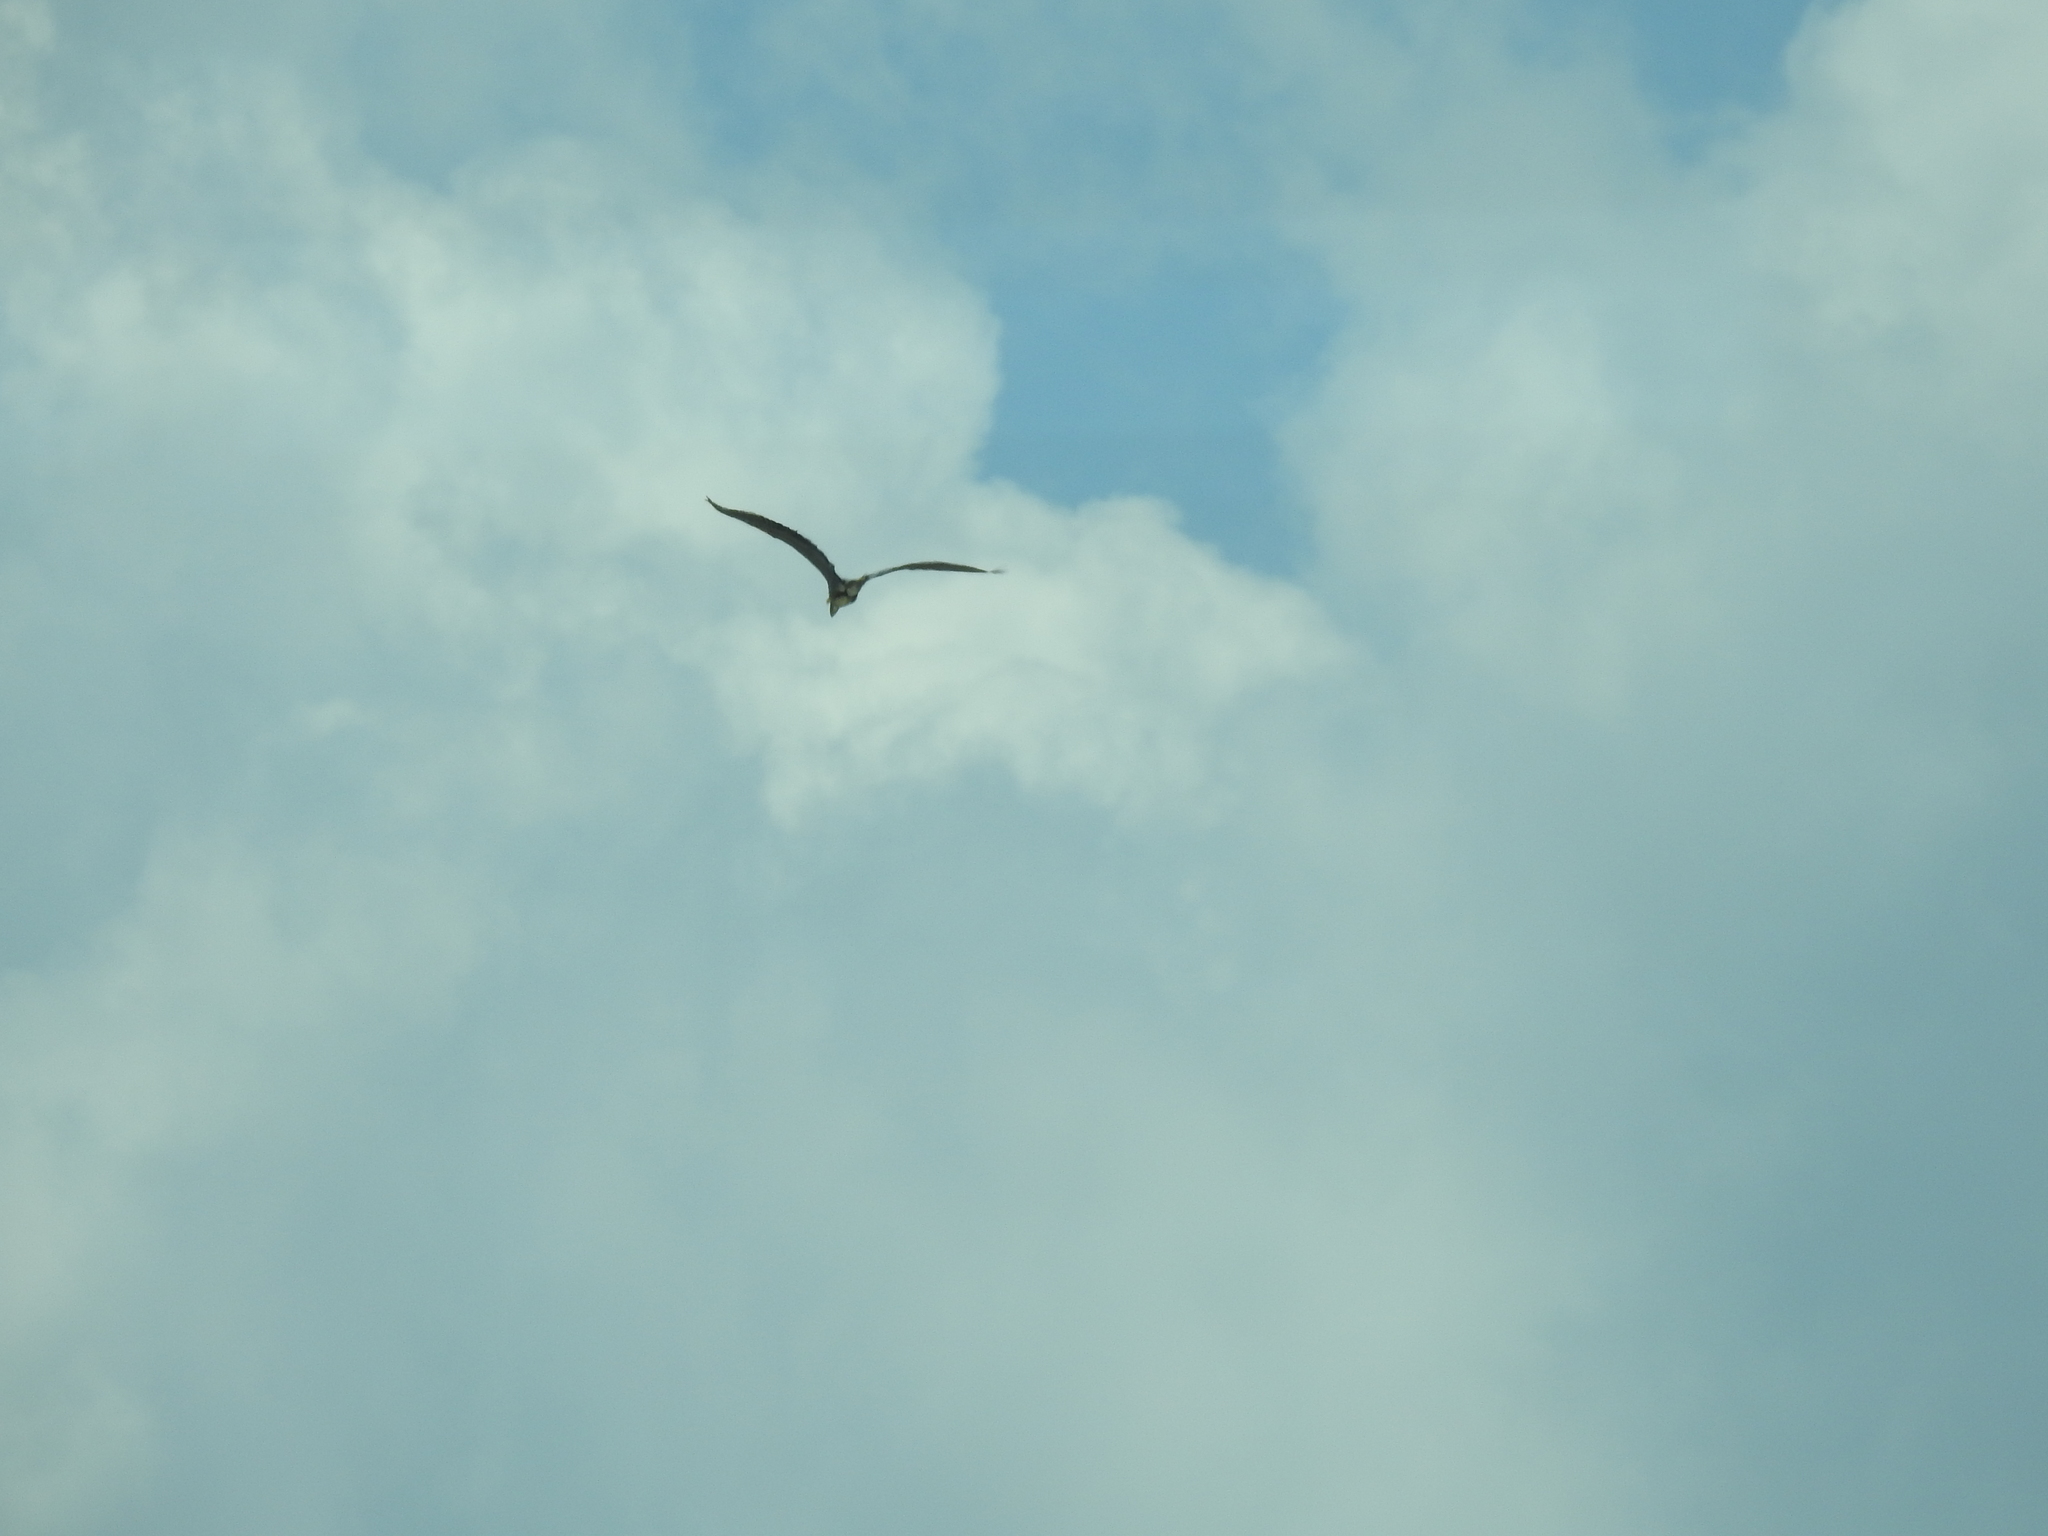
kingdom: Animalia
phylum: Chordata
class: Aves
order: Pelecaniformes
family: Ardeidae
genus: Ardea
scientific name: Ardea herodias
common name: Great blue heron
